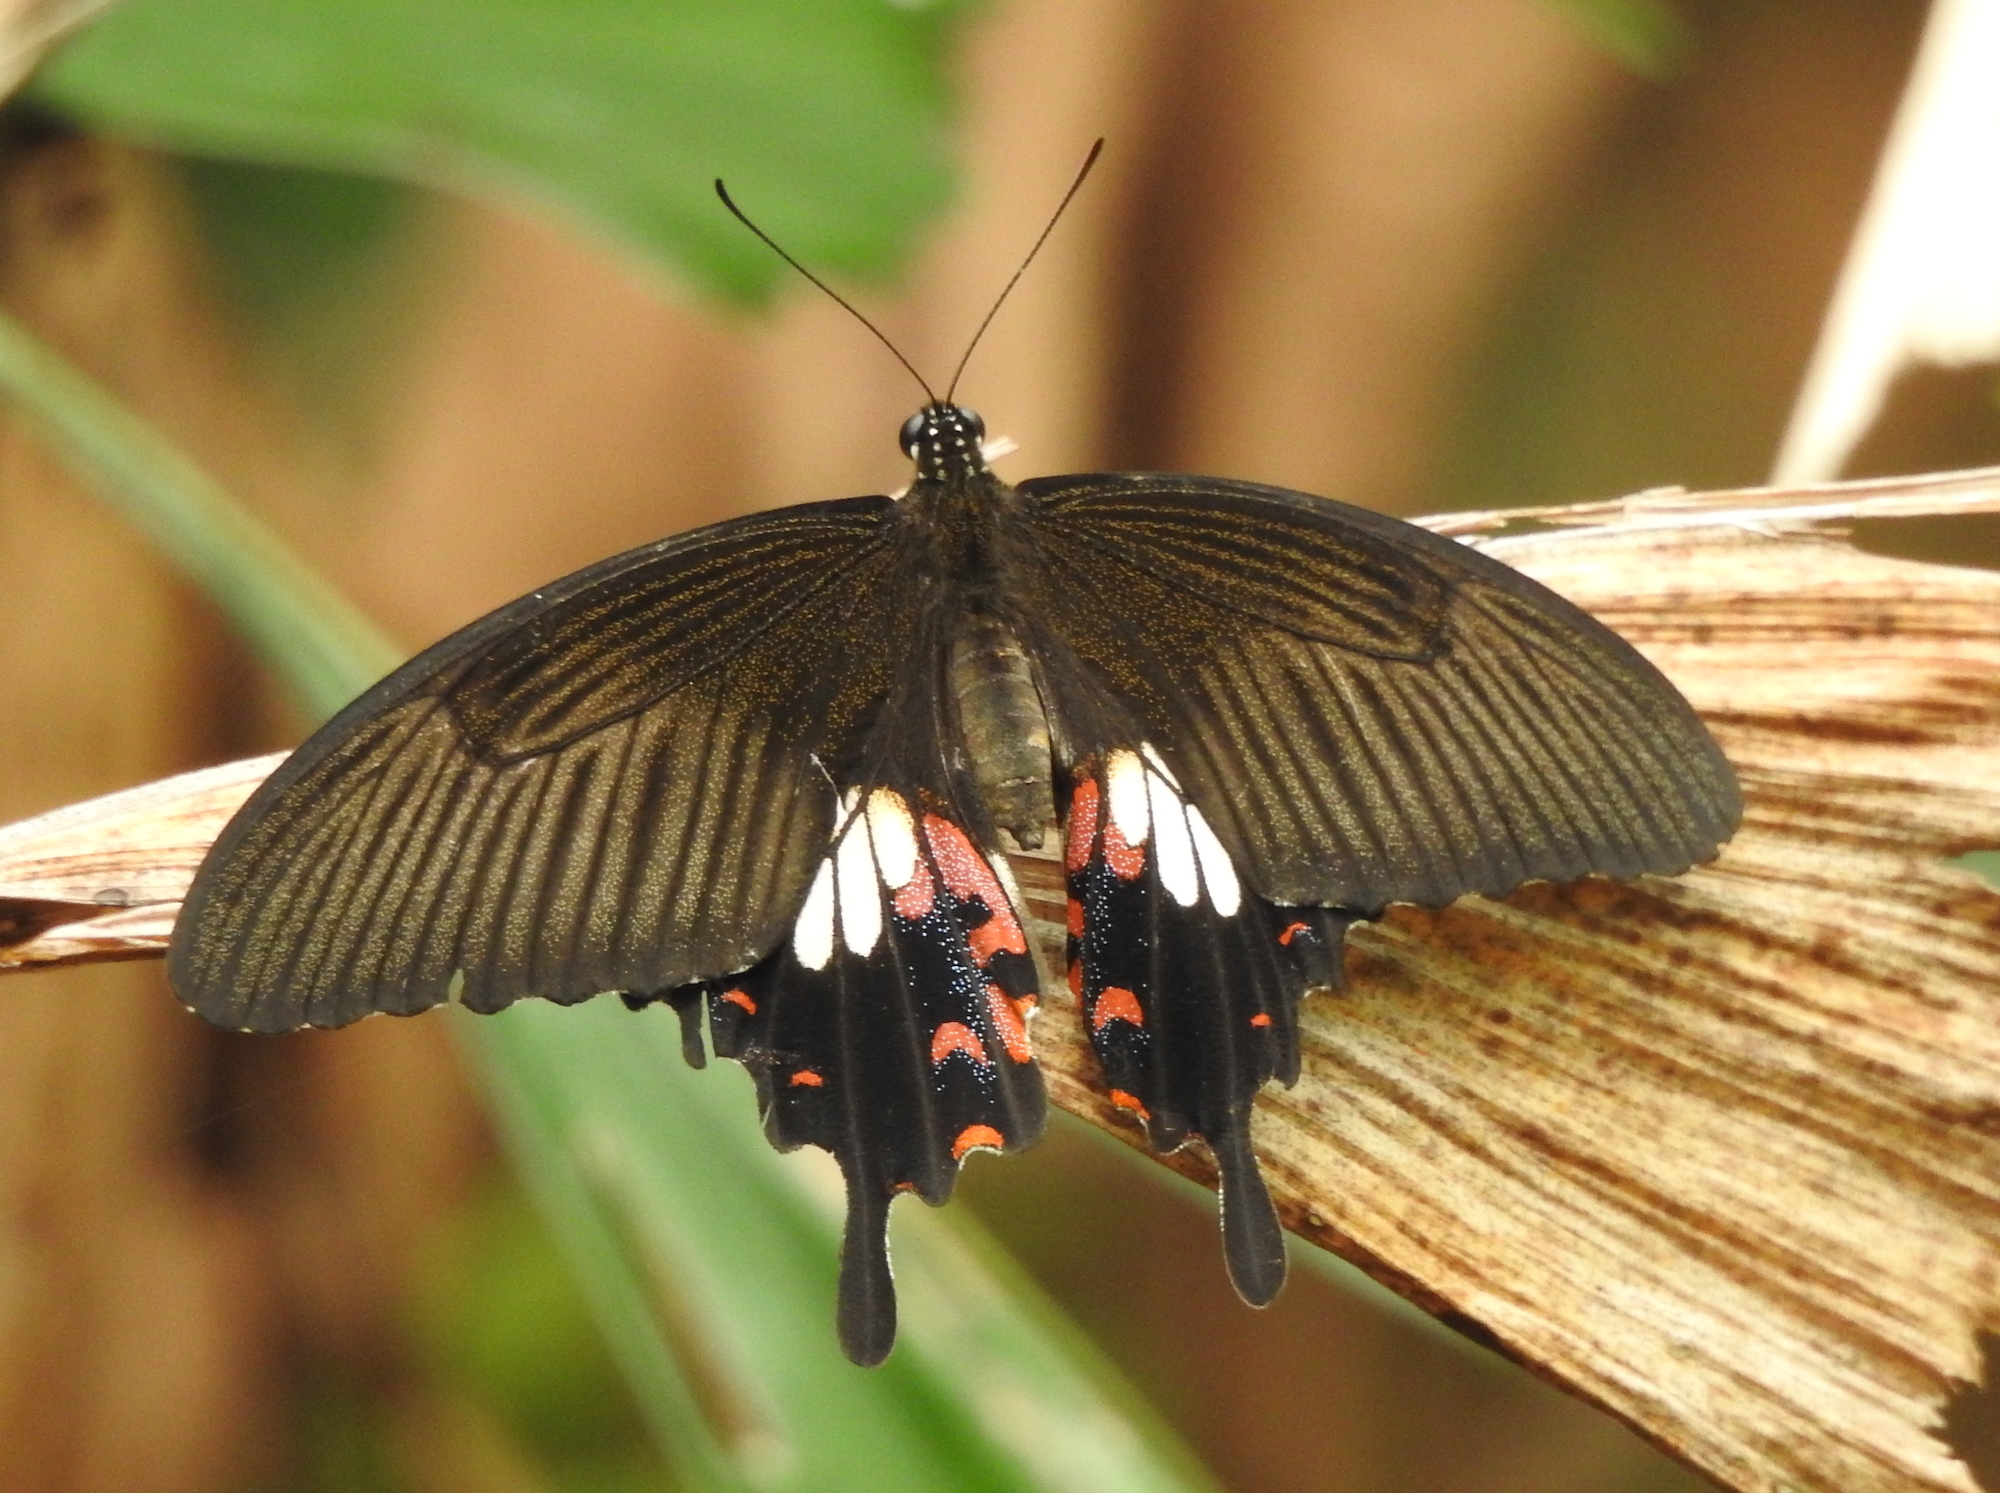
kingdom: Animalia
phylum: Arthropoda
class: Insecta
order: Lepidoptera
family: Papilionidae
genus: Papilio
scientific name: Papilio polytes
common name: Common mormon
